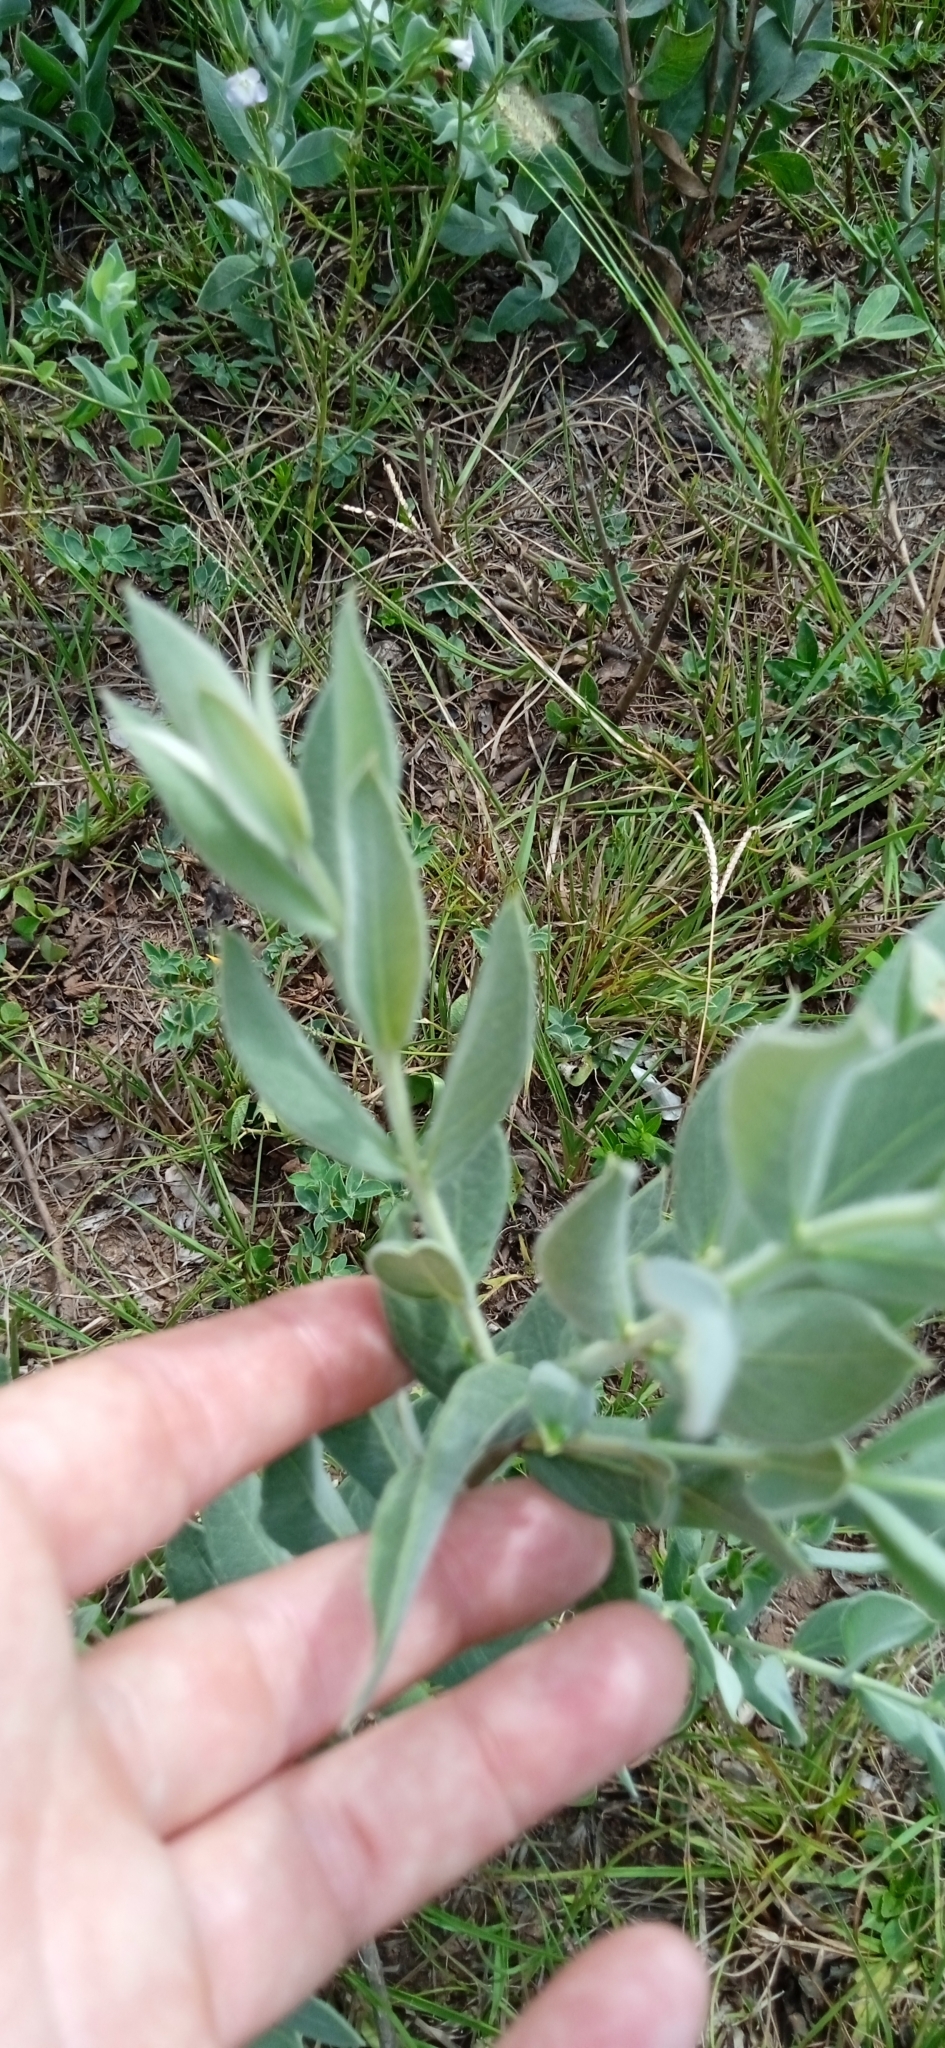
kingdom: Plantae
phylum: Tracheophyta
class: Magnoliopsida
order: Myrtales
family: Myrtaceae
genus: Psidium
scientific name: Psidium salutare
